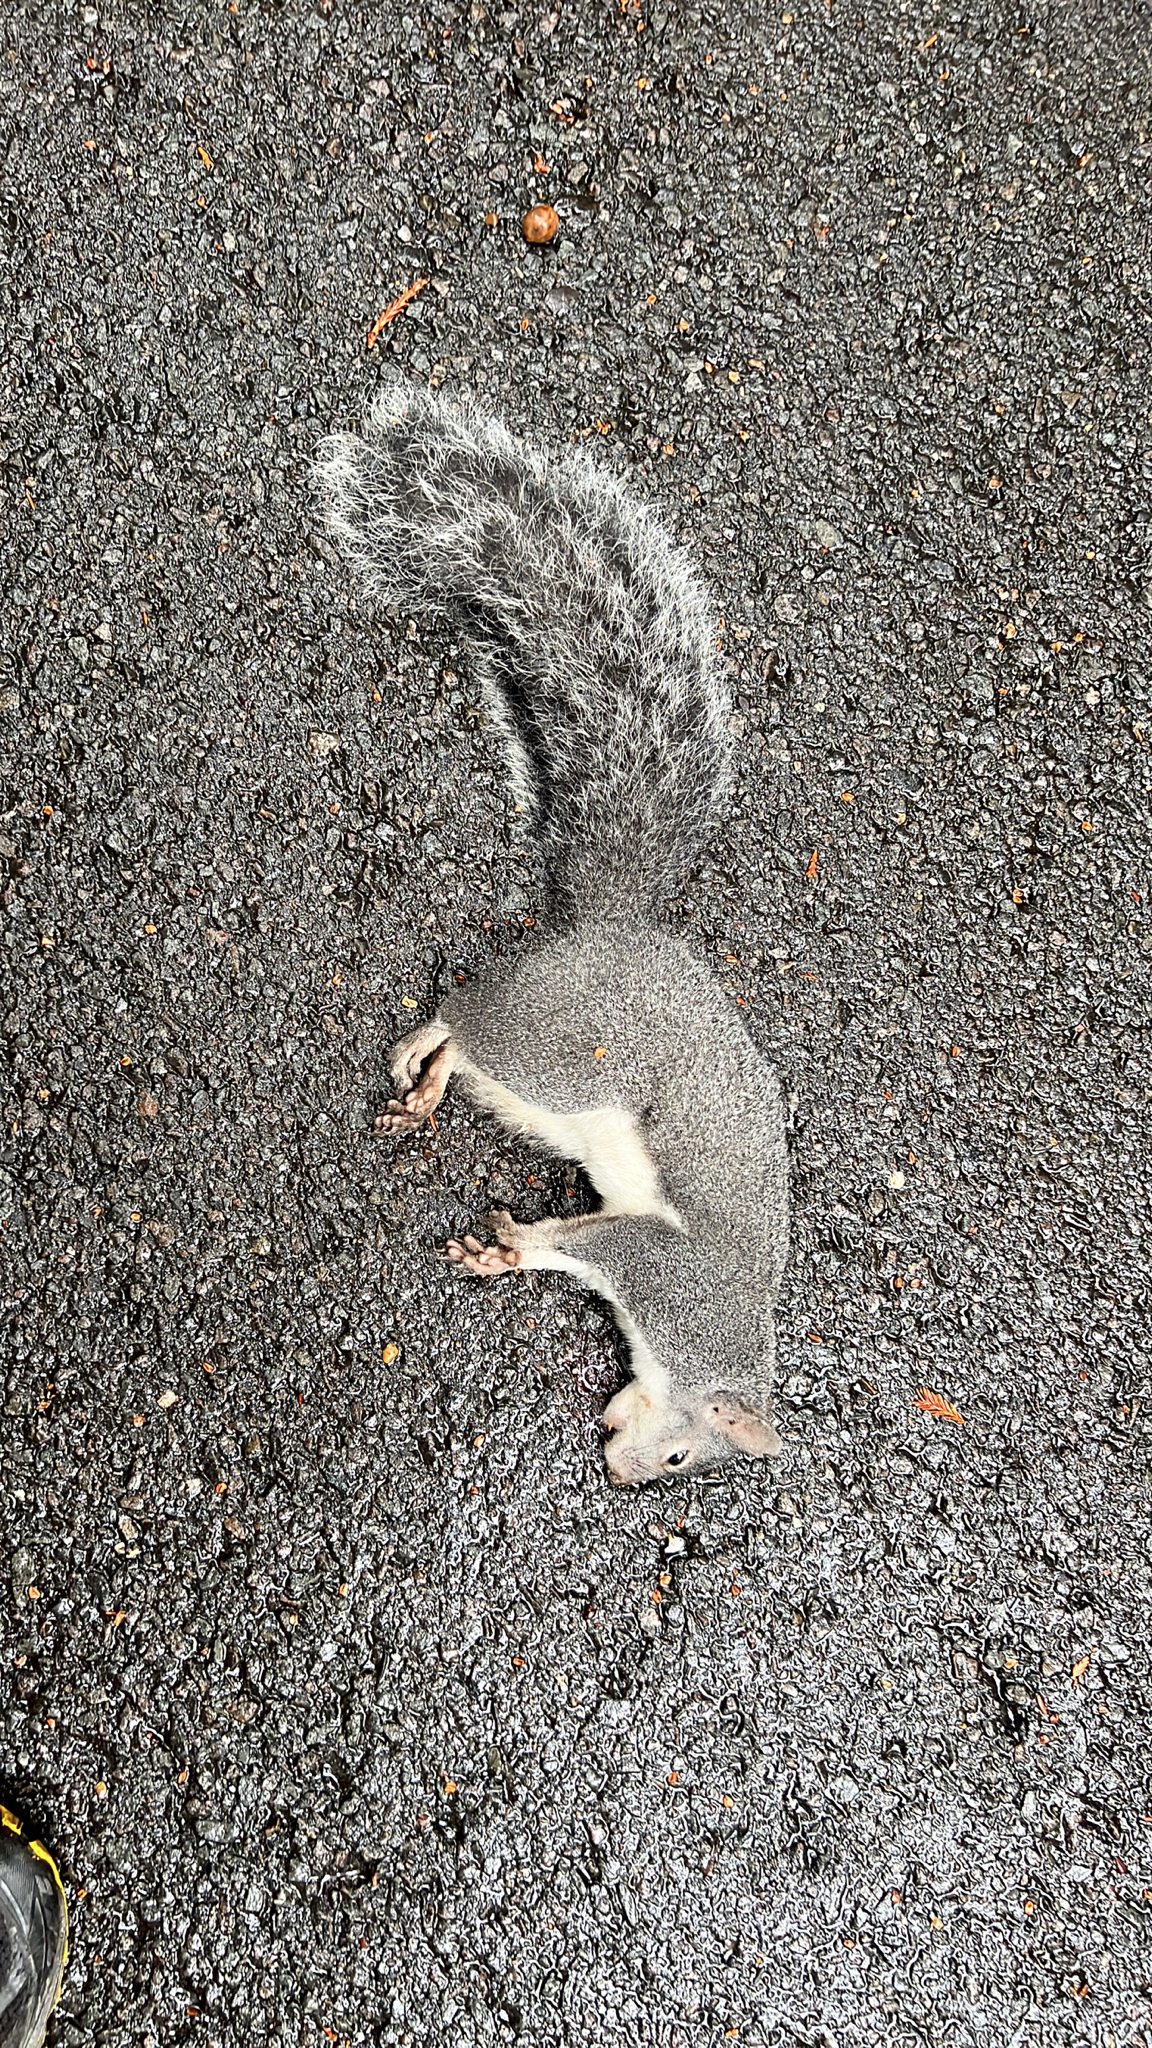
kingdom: Animalia
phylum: Chordata
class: Mammalia
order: Rodentia
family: Sciuridae
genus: Sciurus
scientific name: Sciurus griseus
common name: Western gray squirrel
